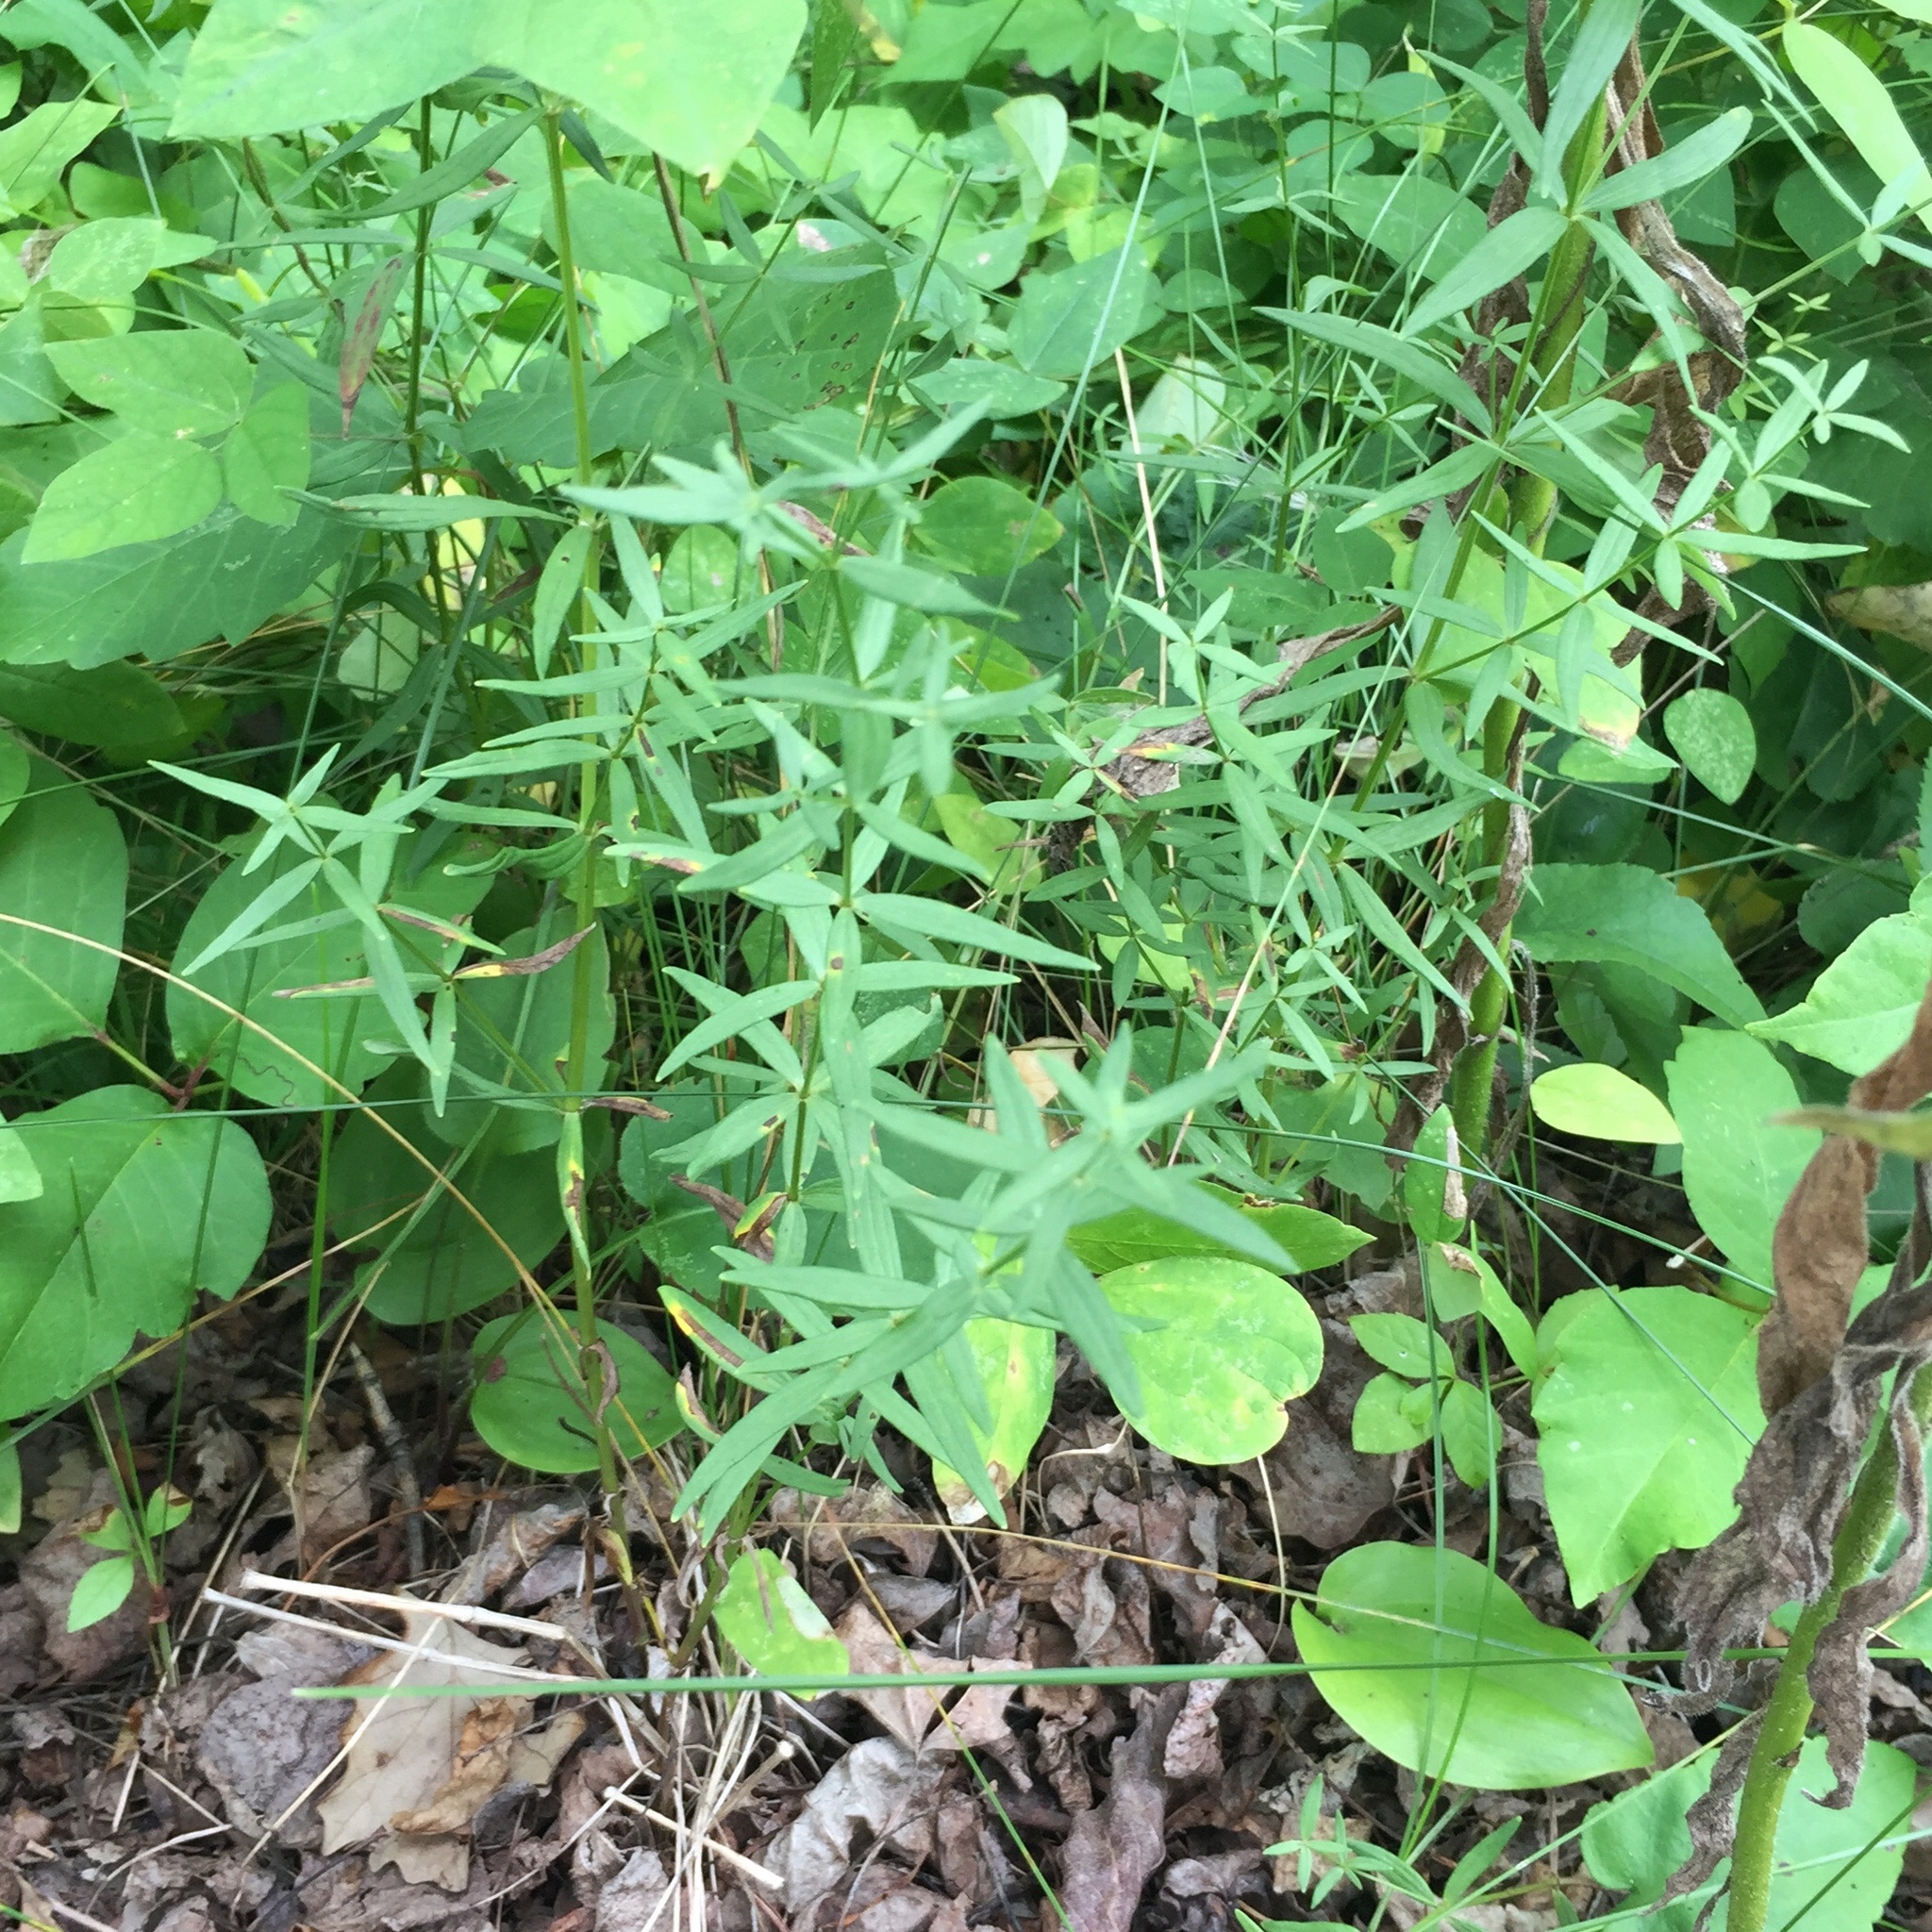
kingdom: Plantae
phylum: Tracheophyta
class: Magnoliopsida
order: Gentianales
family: Rubiaceae
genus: Galium
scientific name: Galium boreale
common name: Northern bedstraw
